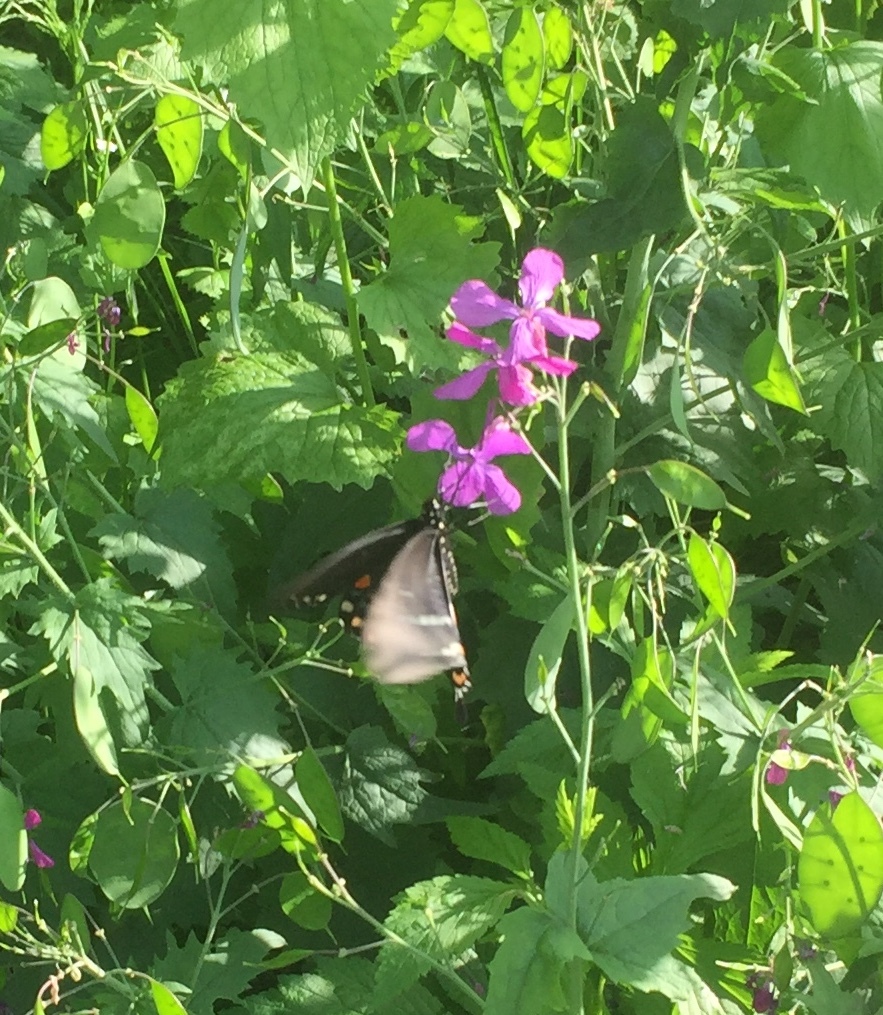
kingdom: Animalia
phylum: Arthropoda
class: Insecta
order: Lepidoptera
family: Papilionidae
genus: Papilio
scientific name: Papilio troilus
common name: Spicebush swallowtail
